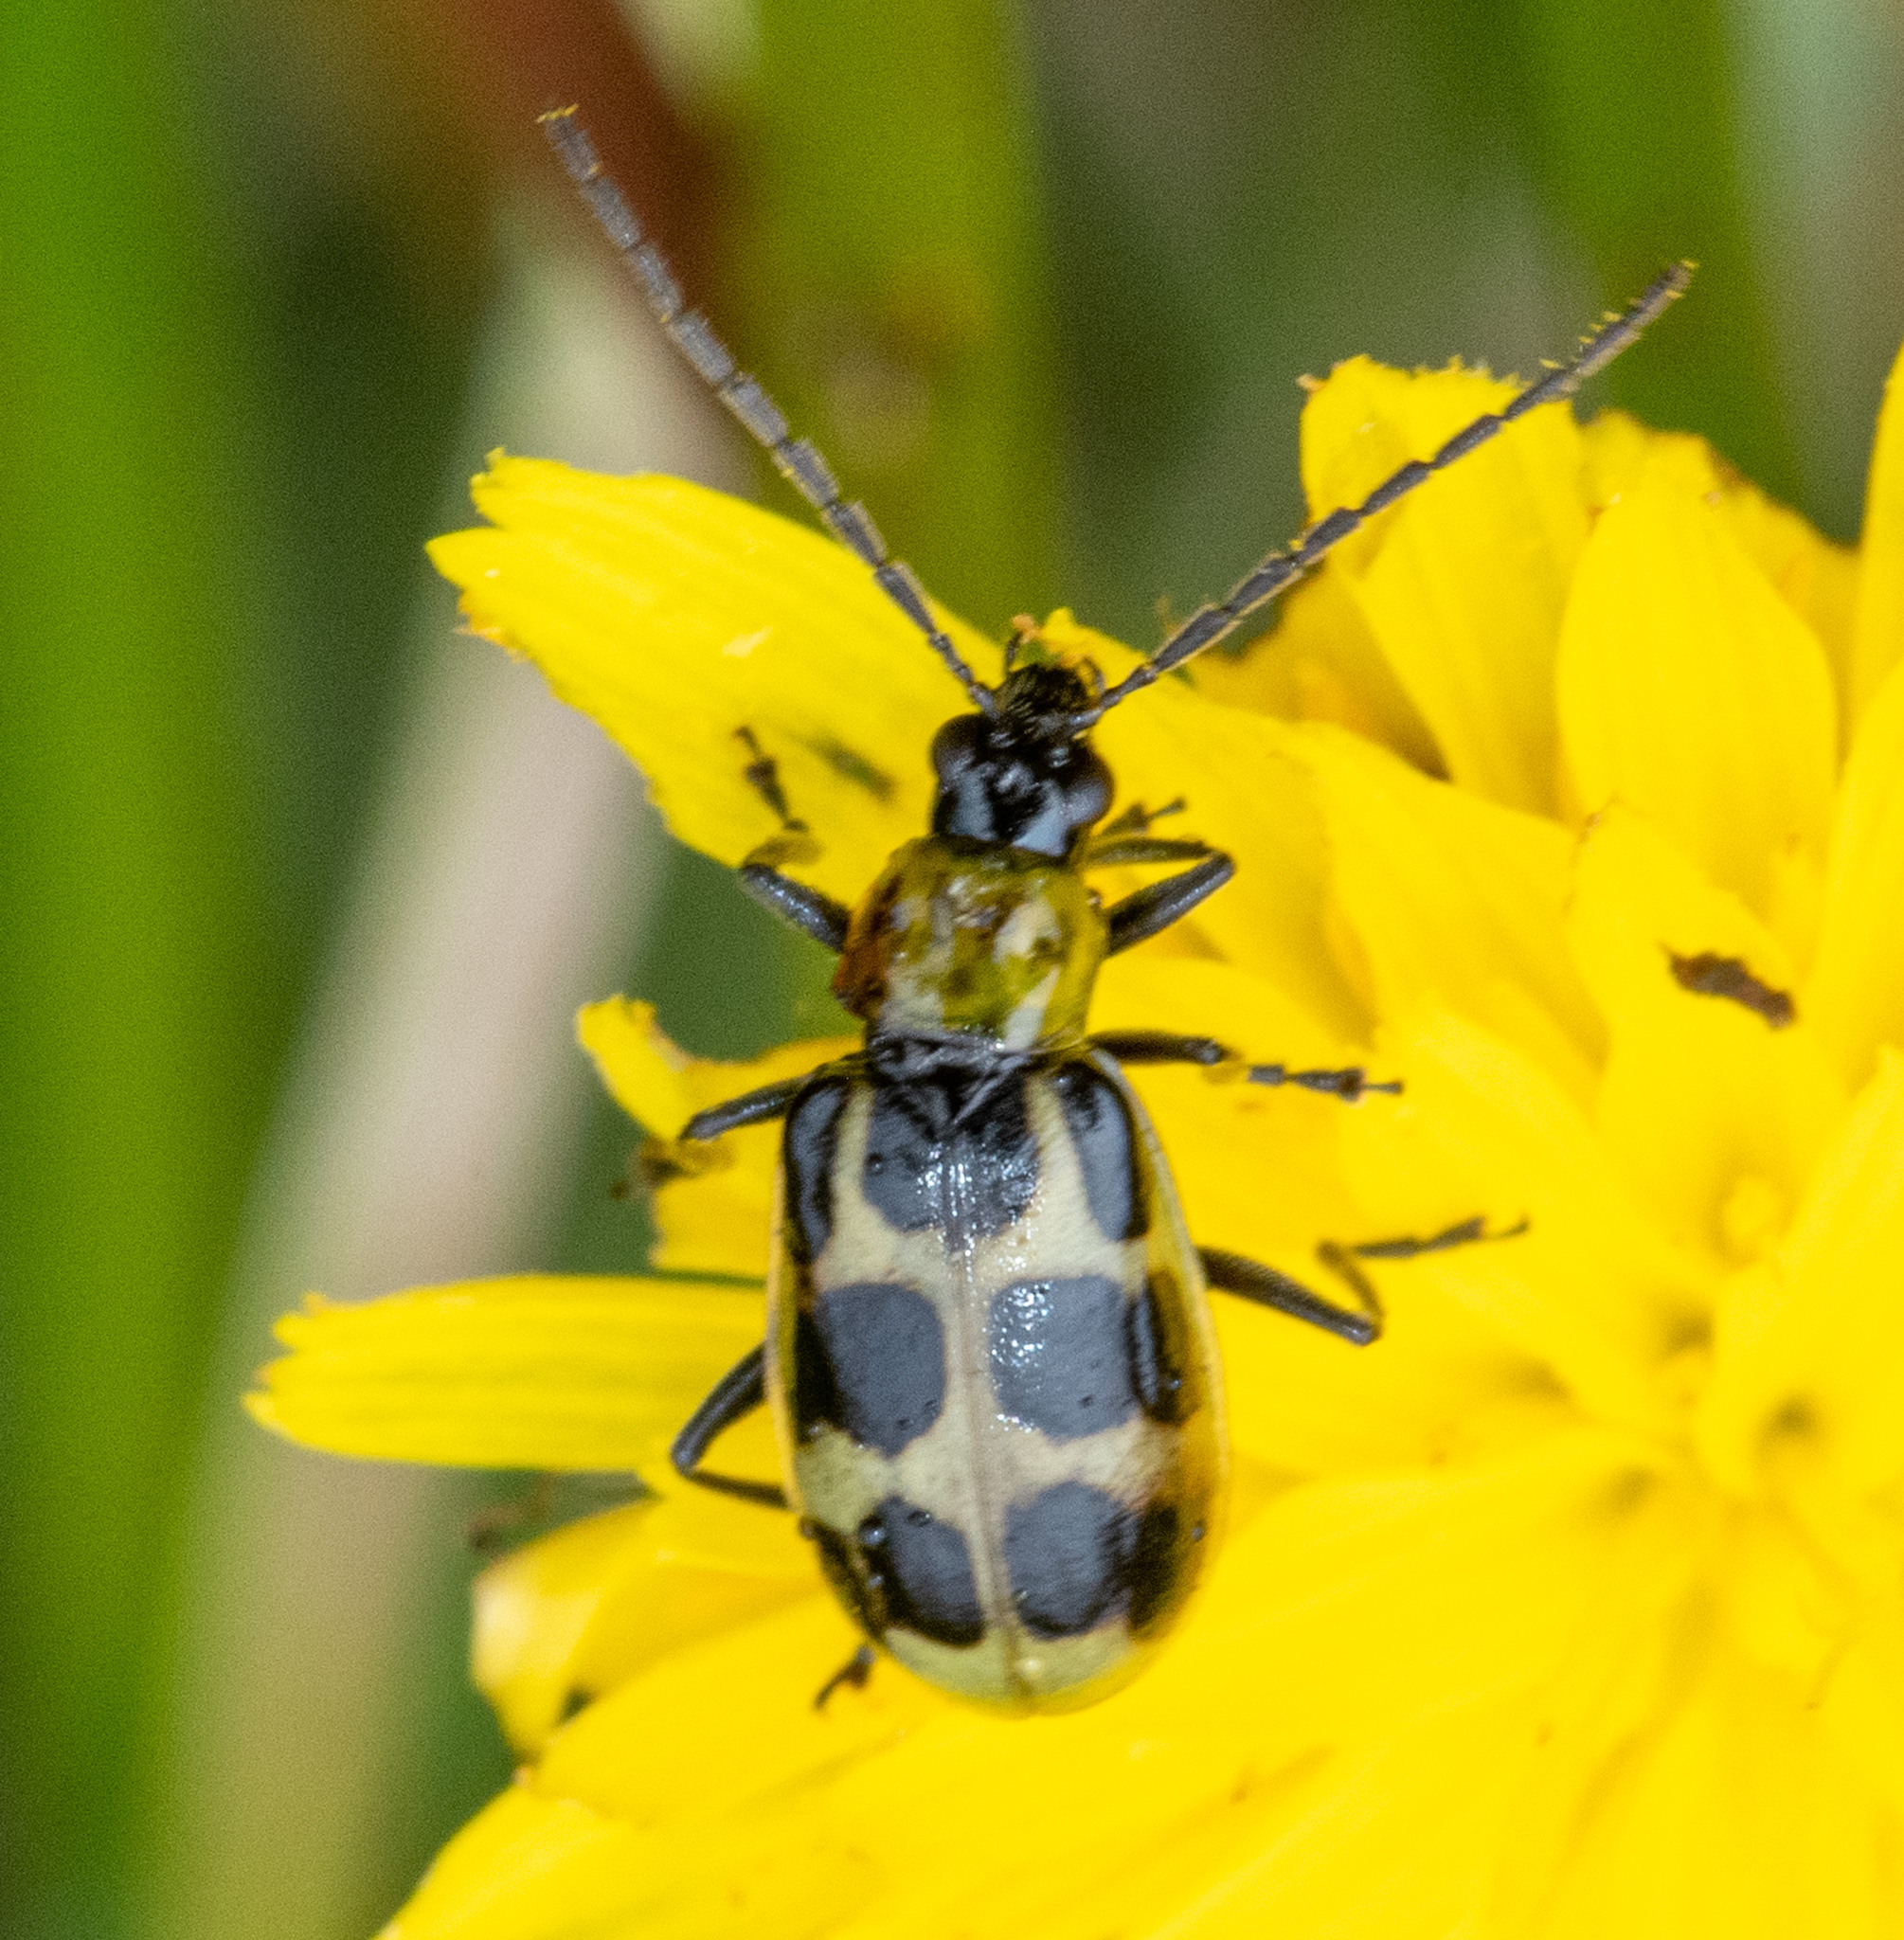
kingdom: Animalia
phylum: Arthropoda
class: Insecta
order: Coleoptera
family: Chrysomelidae
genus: Diabrotica
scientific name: Diabrotica undecimpunctata
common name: Spotted cucumber beetle
